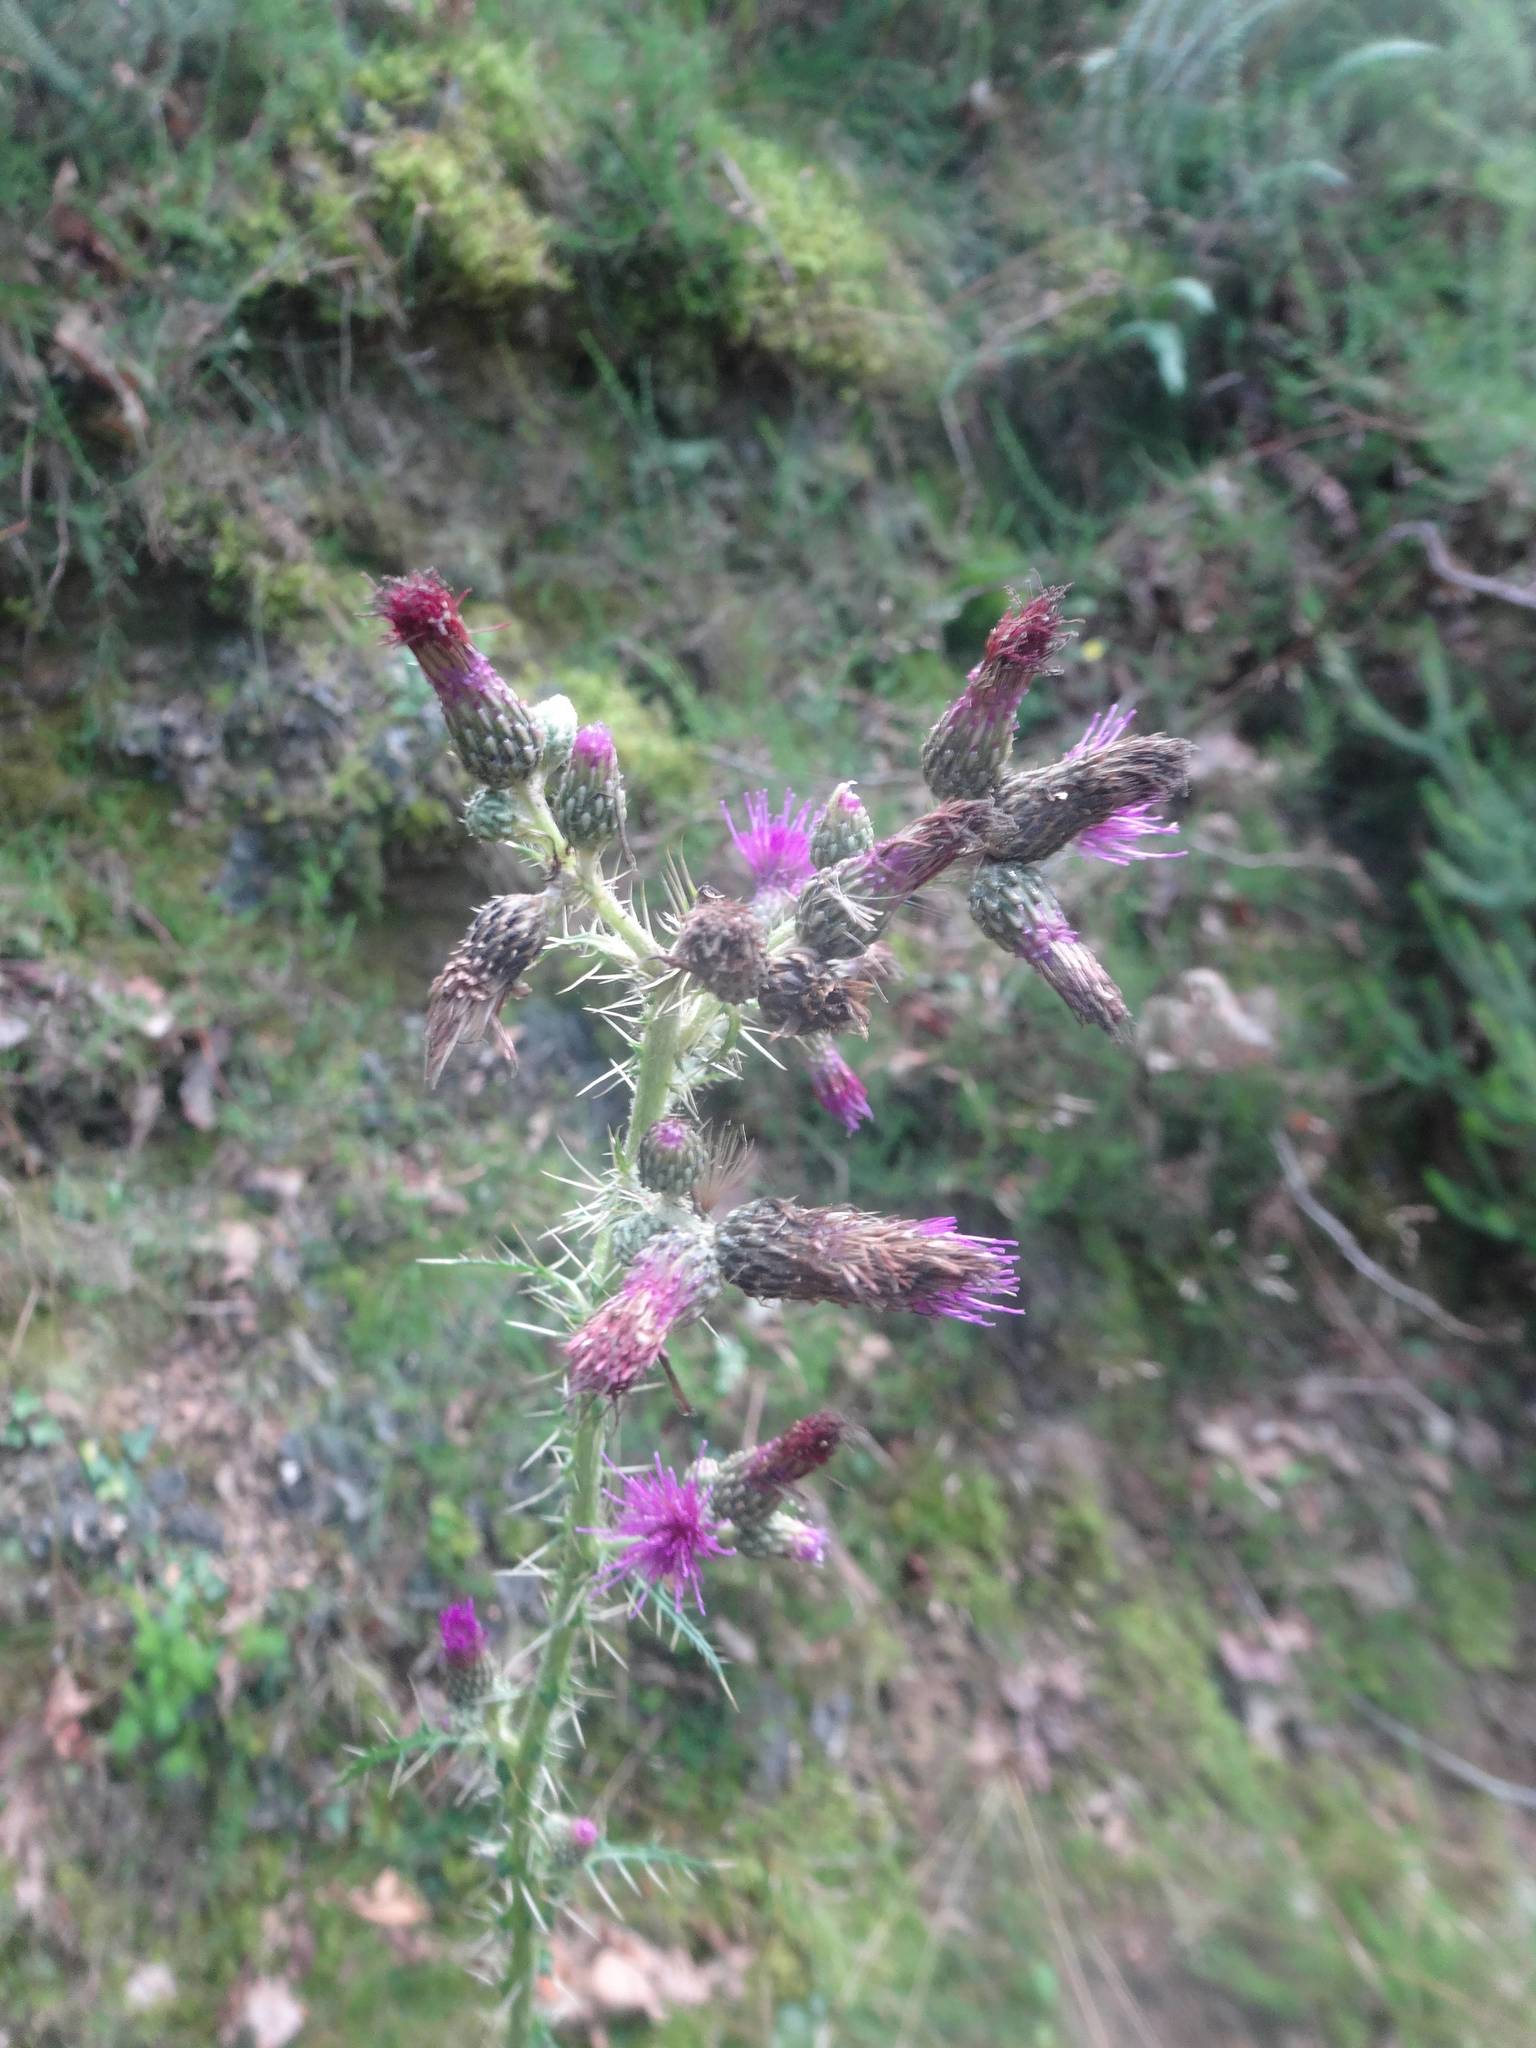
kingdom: Plantae
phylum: Tracheophyta
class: Magnoliopsida
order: Asterales
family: Asteraceae
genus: Cirsium
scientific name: Cirsium palustre
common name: Marsh thistle
